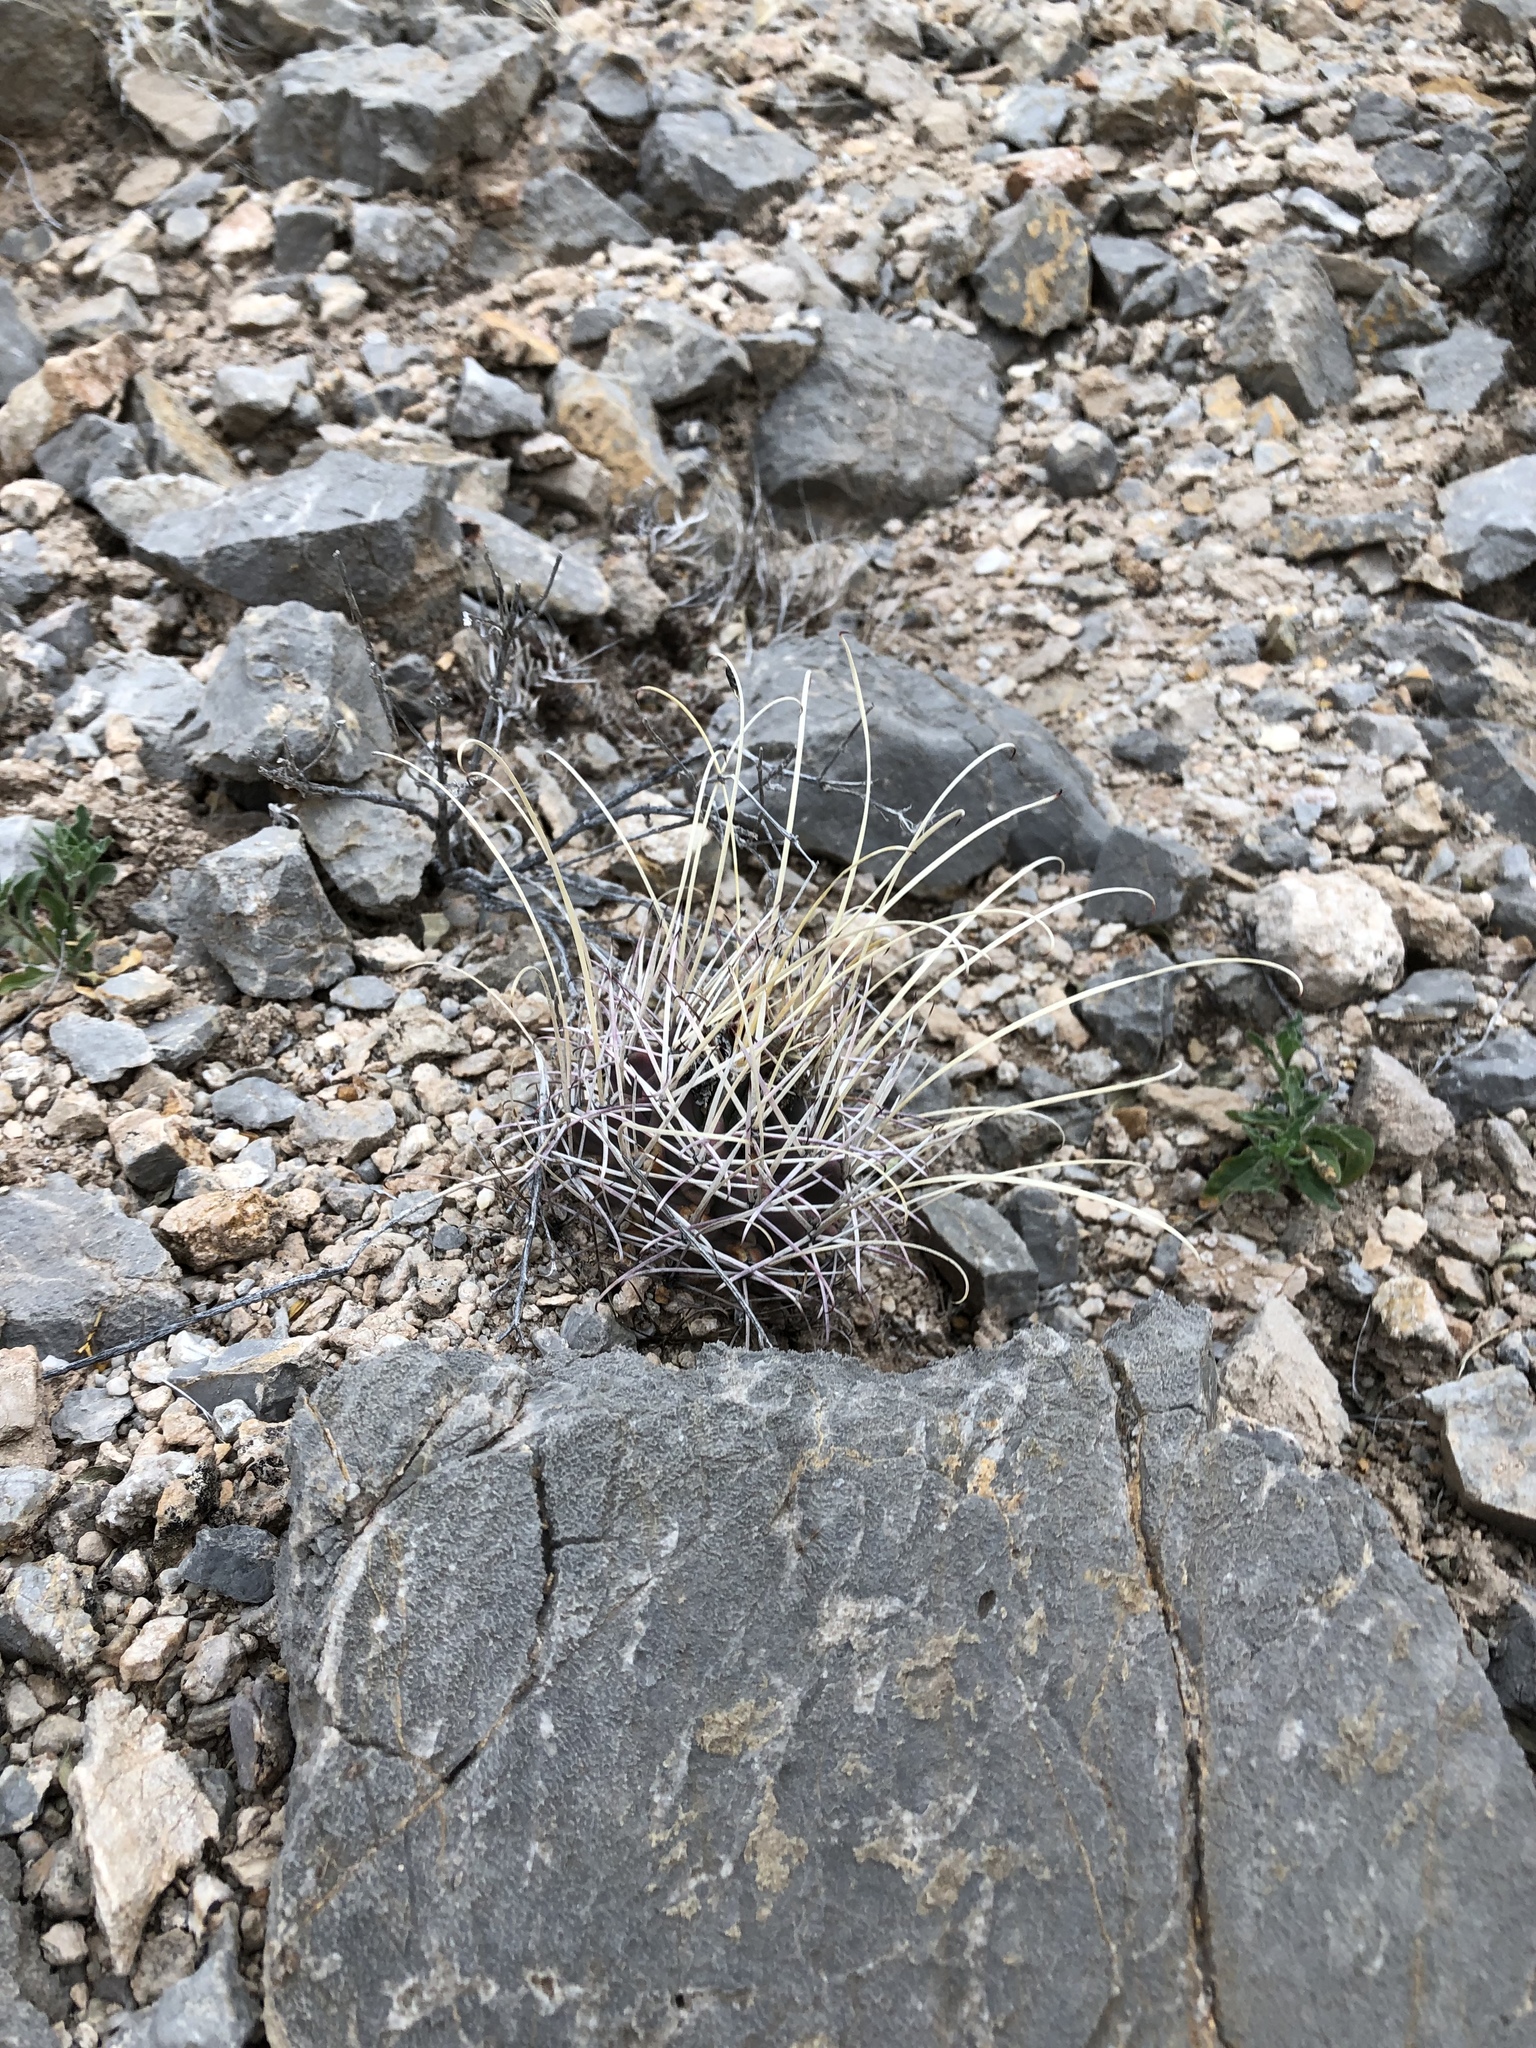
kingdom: Plantae
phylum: Tracheophyta
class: Magnoliopsida
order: Caryophyllales
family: Cactaceae
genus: Ferocactus
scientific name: Ferocactus uncinatus
